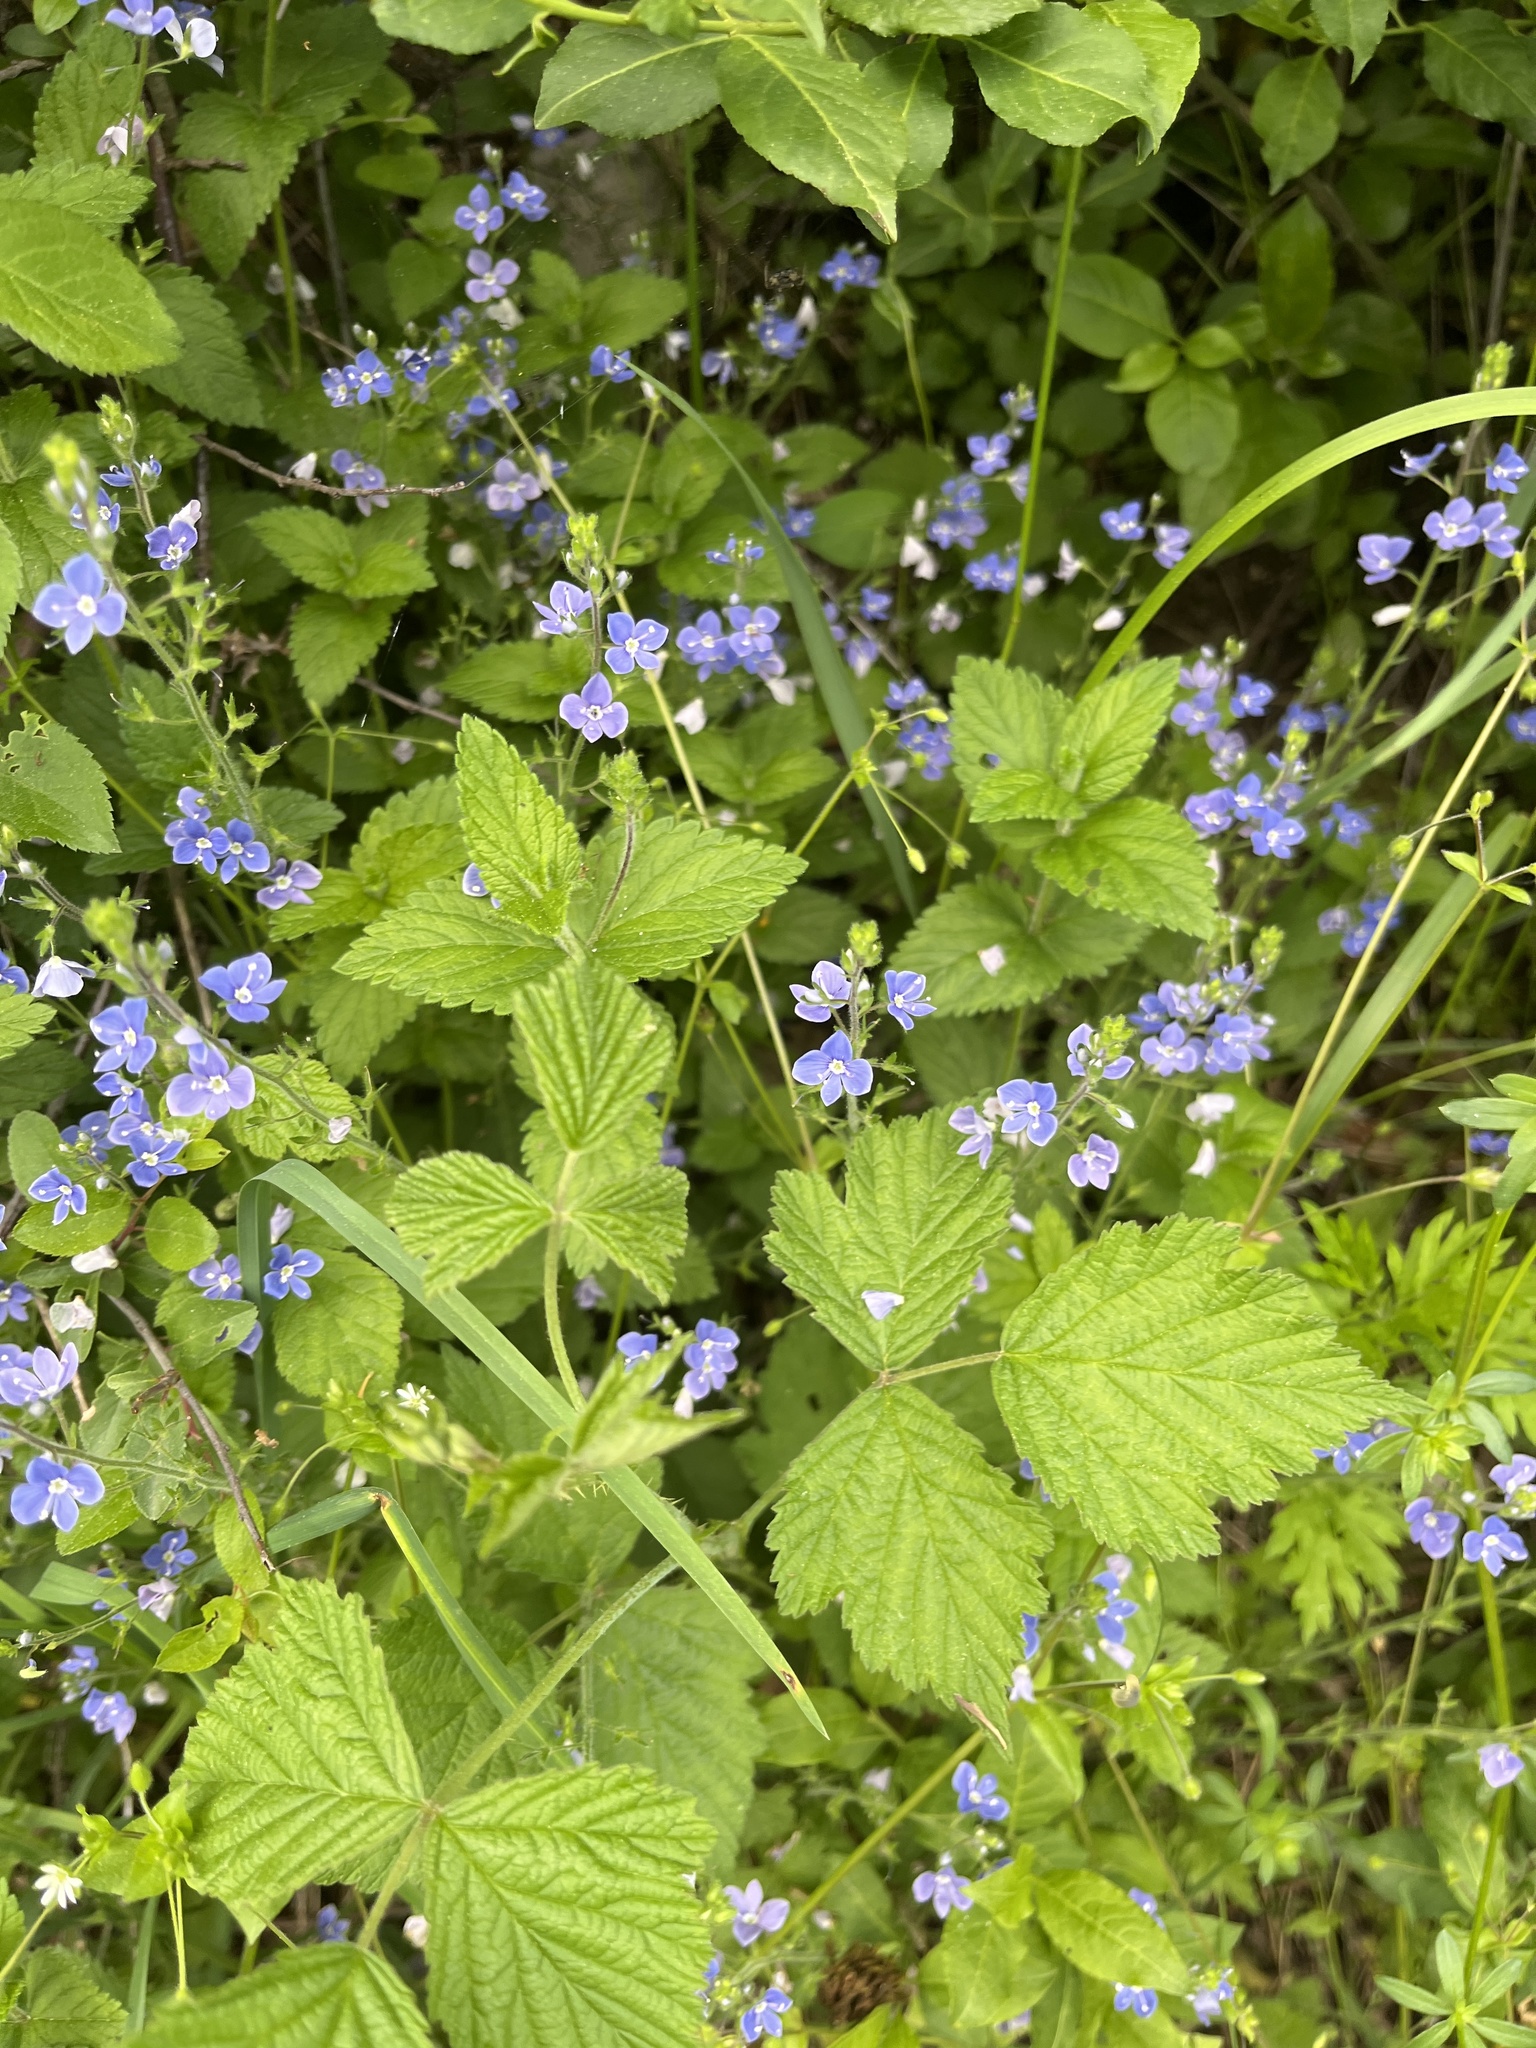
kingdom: Plantae
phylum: Tracheophyta
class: Magnoliopsida
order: Lamiales
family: Plantaginaceae
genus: Veronica
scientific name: Veronica chamaedrys
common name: Germander speedwell
